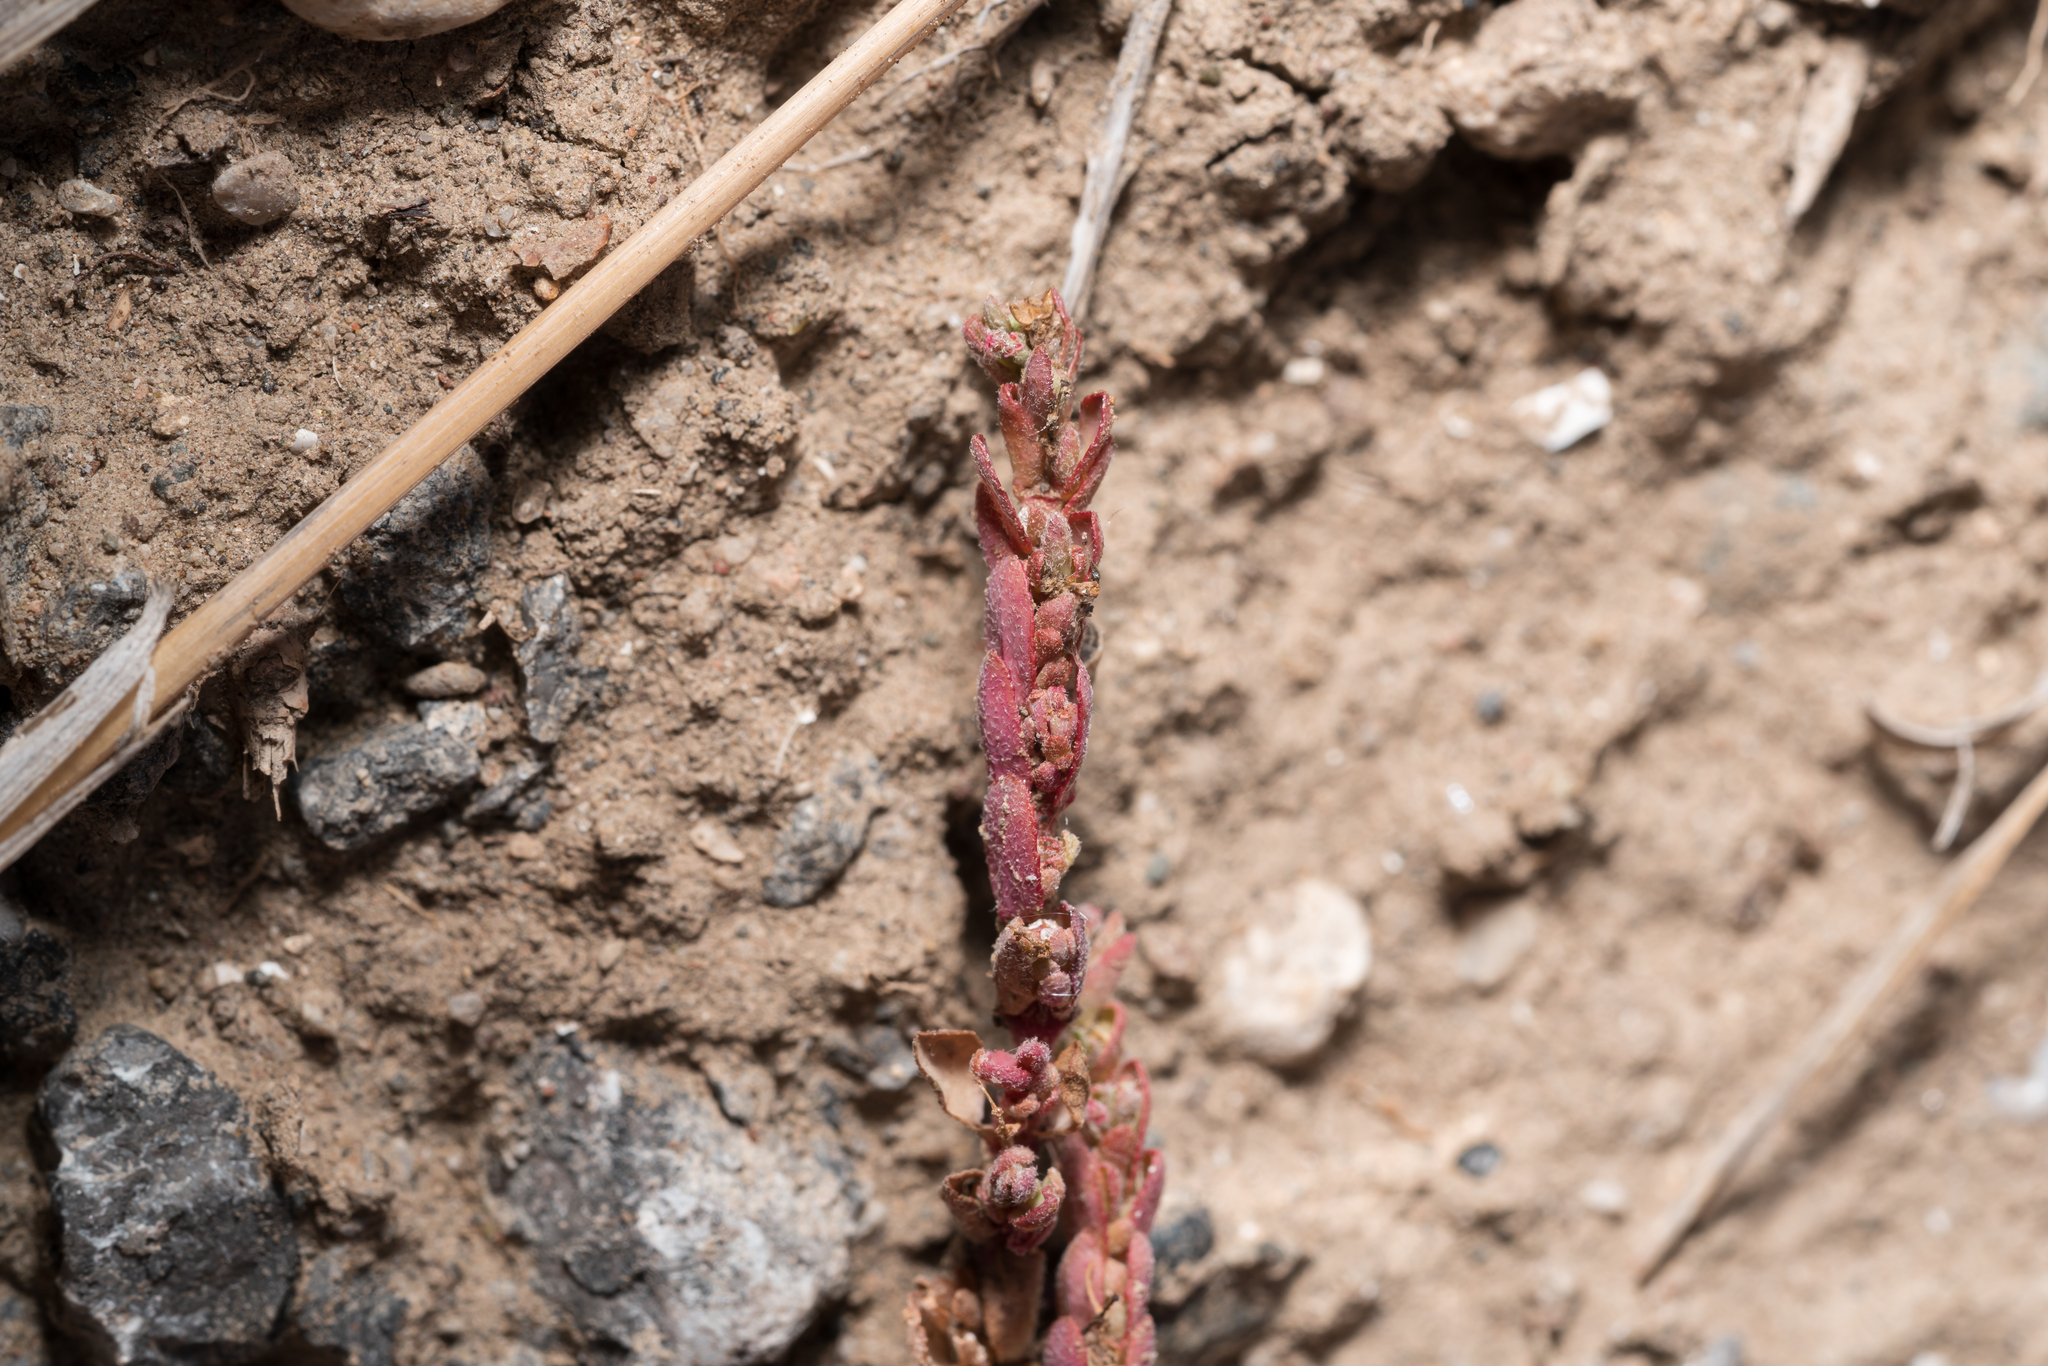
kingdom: Plantae
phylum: Tracheophyta
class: Magnoliopsida
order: Malpighiales
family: Euphorbiaceae
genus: Euphorbia
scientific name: Euphorbia prostrata
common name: Prostrate sandmat
